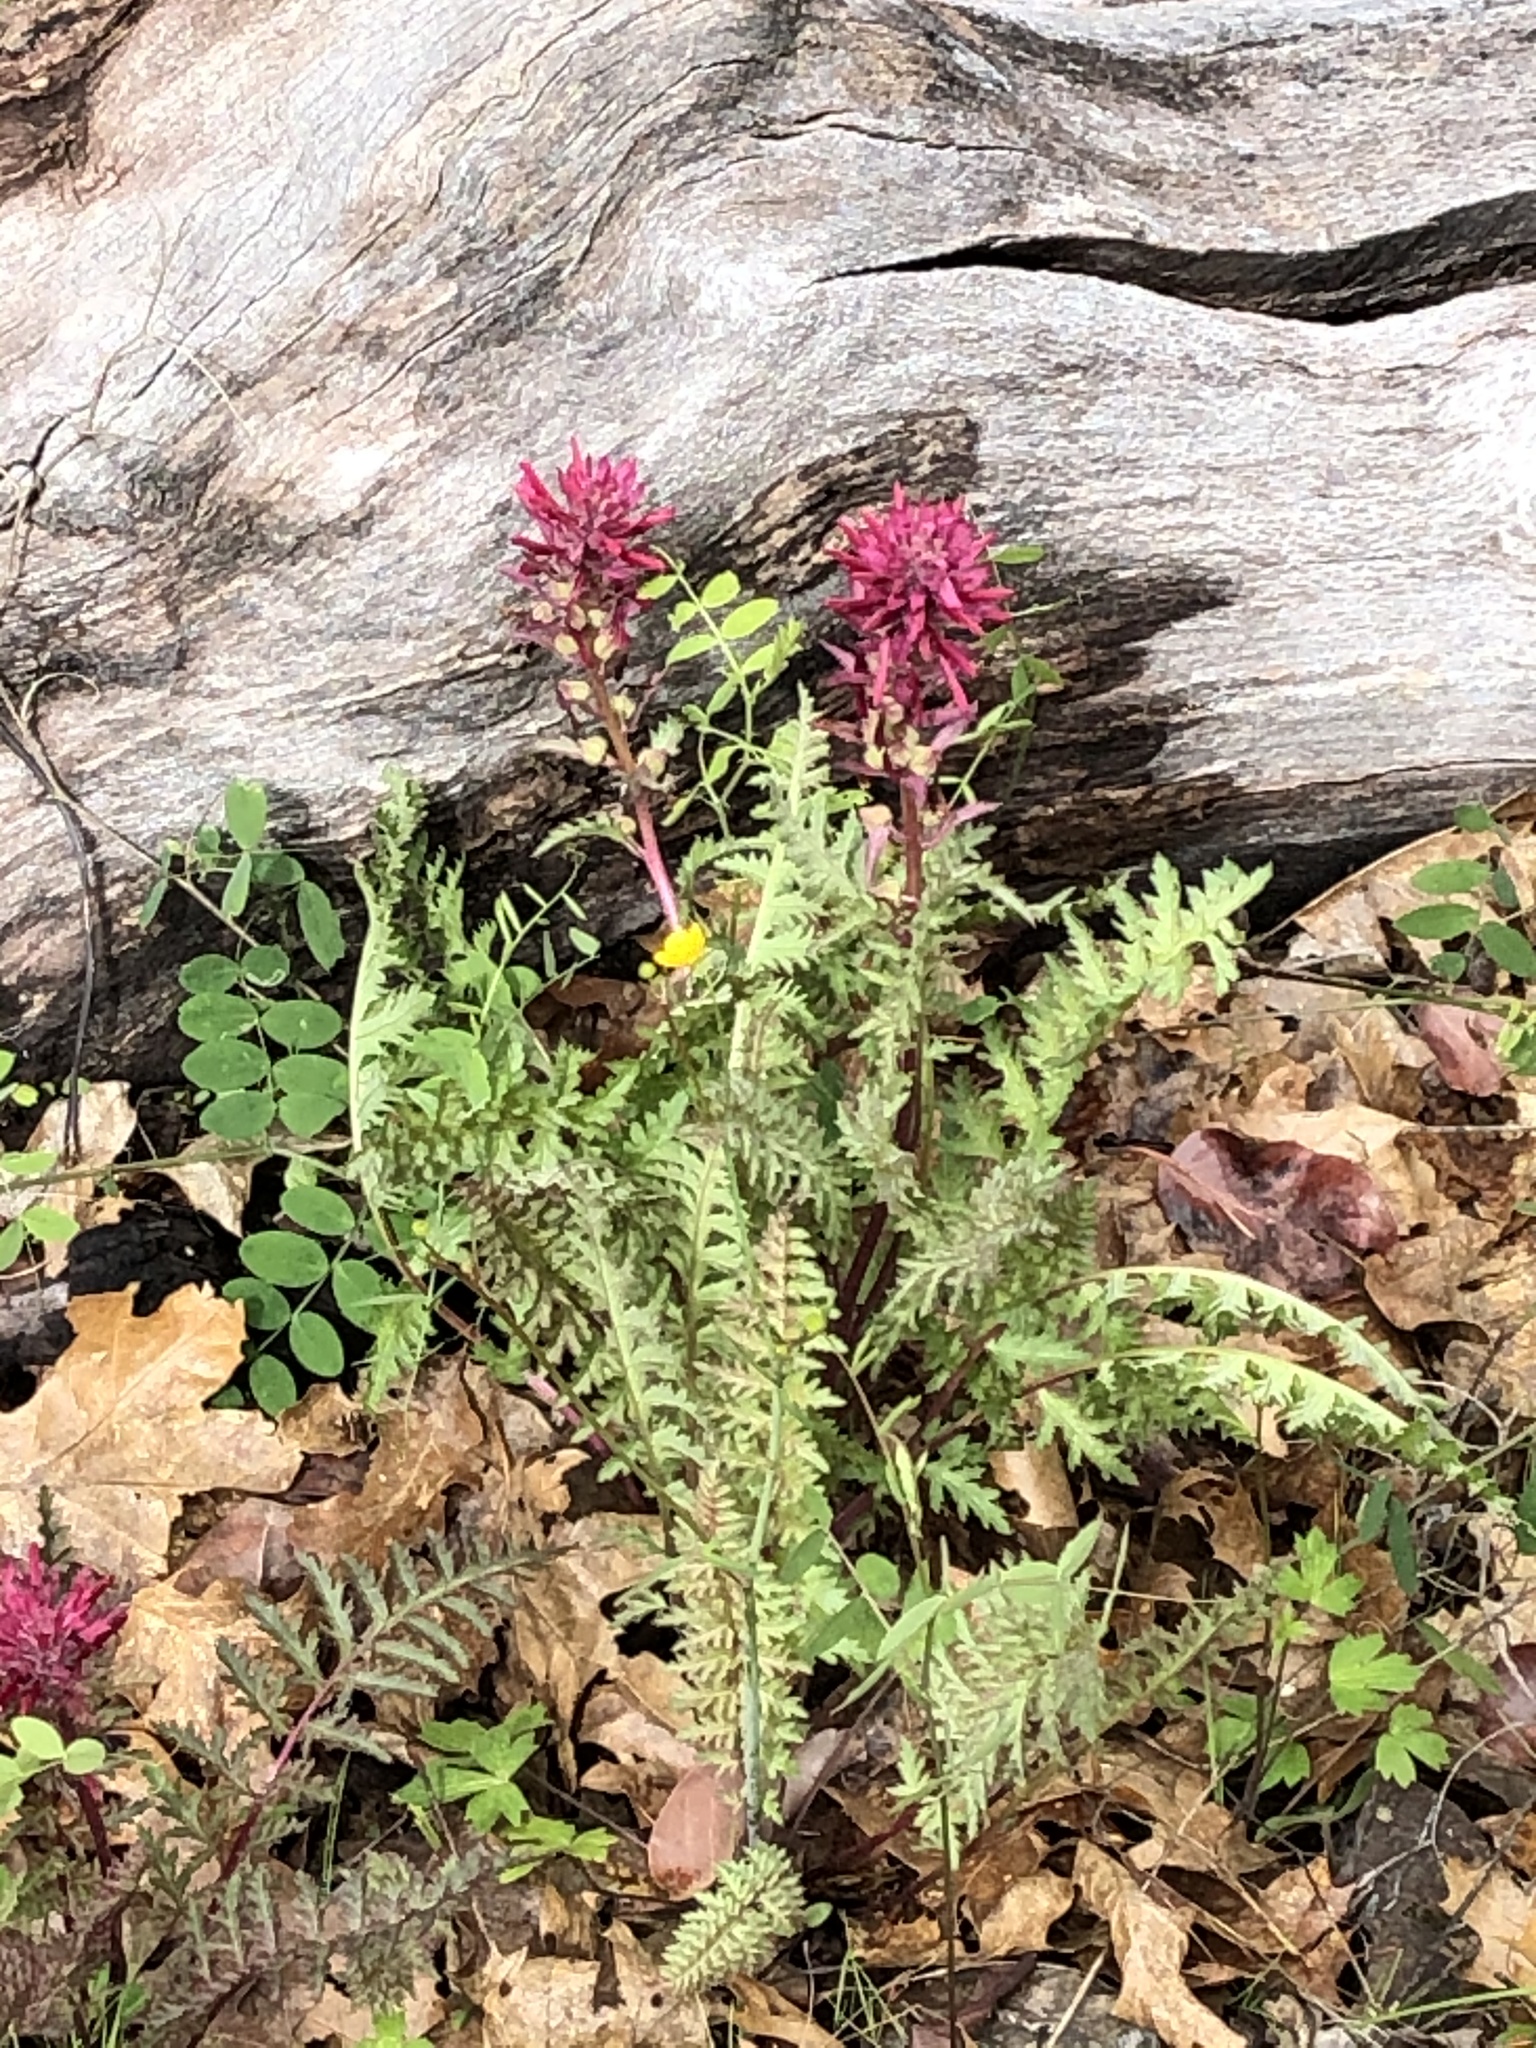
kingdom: Plantae
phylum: Tracheophyta
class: Magnoliopsida
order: Lamiales
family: Orobanchaceae
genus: Pedicularis
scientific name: Pedicularis densiflora
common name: Indian warrior
